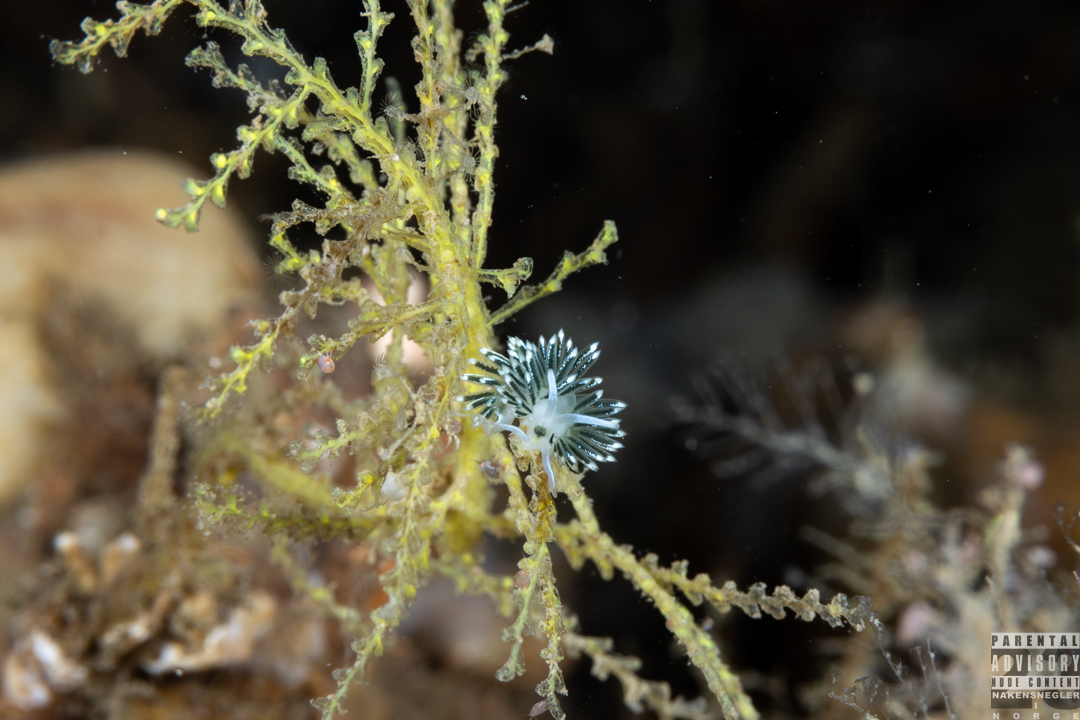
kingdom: Animalia
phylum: Mollusca
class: Gastropoda
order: Nudibranchia
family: Trinchesiidae
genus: Diaphoreolis
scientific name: Diaphoreolis viridis
